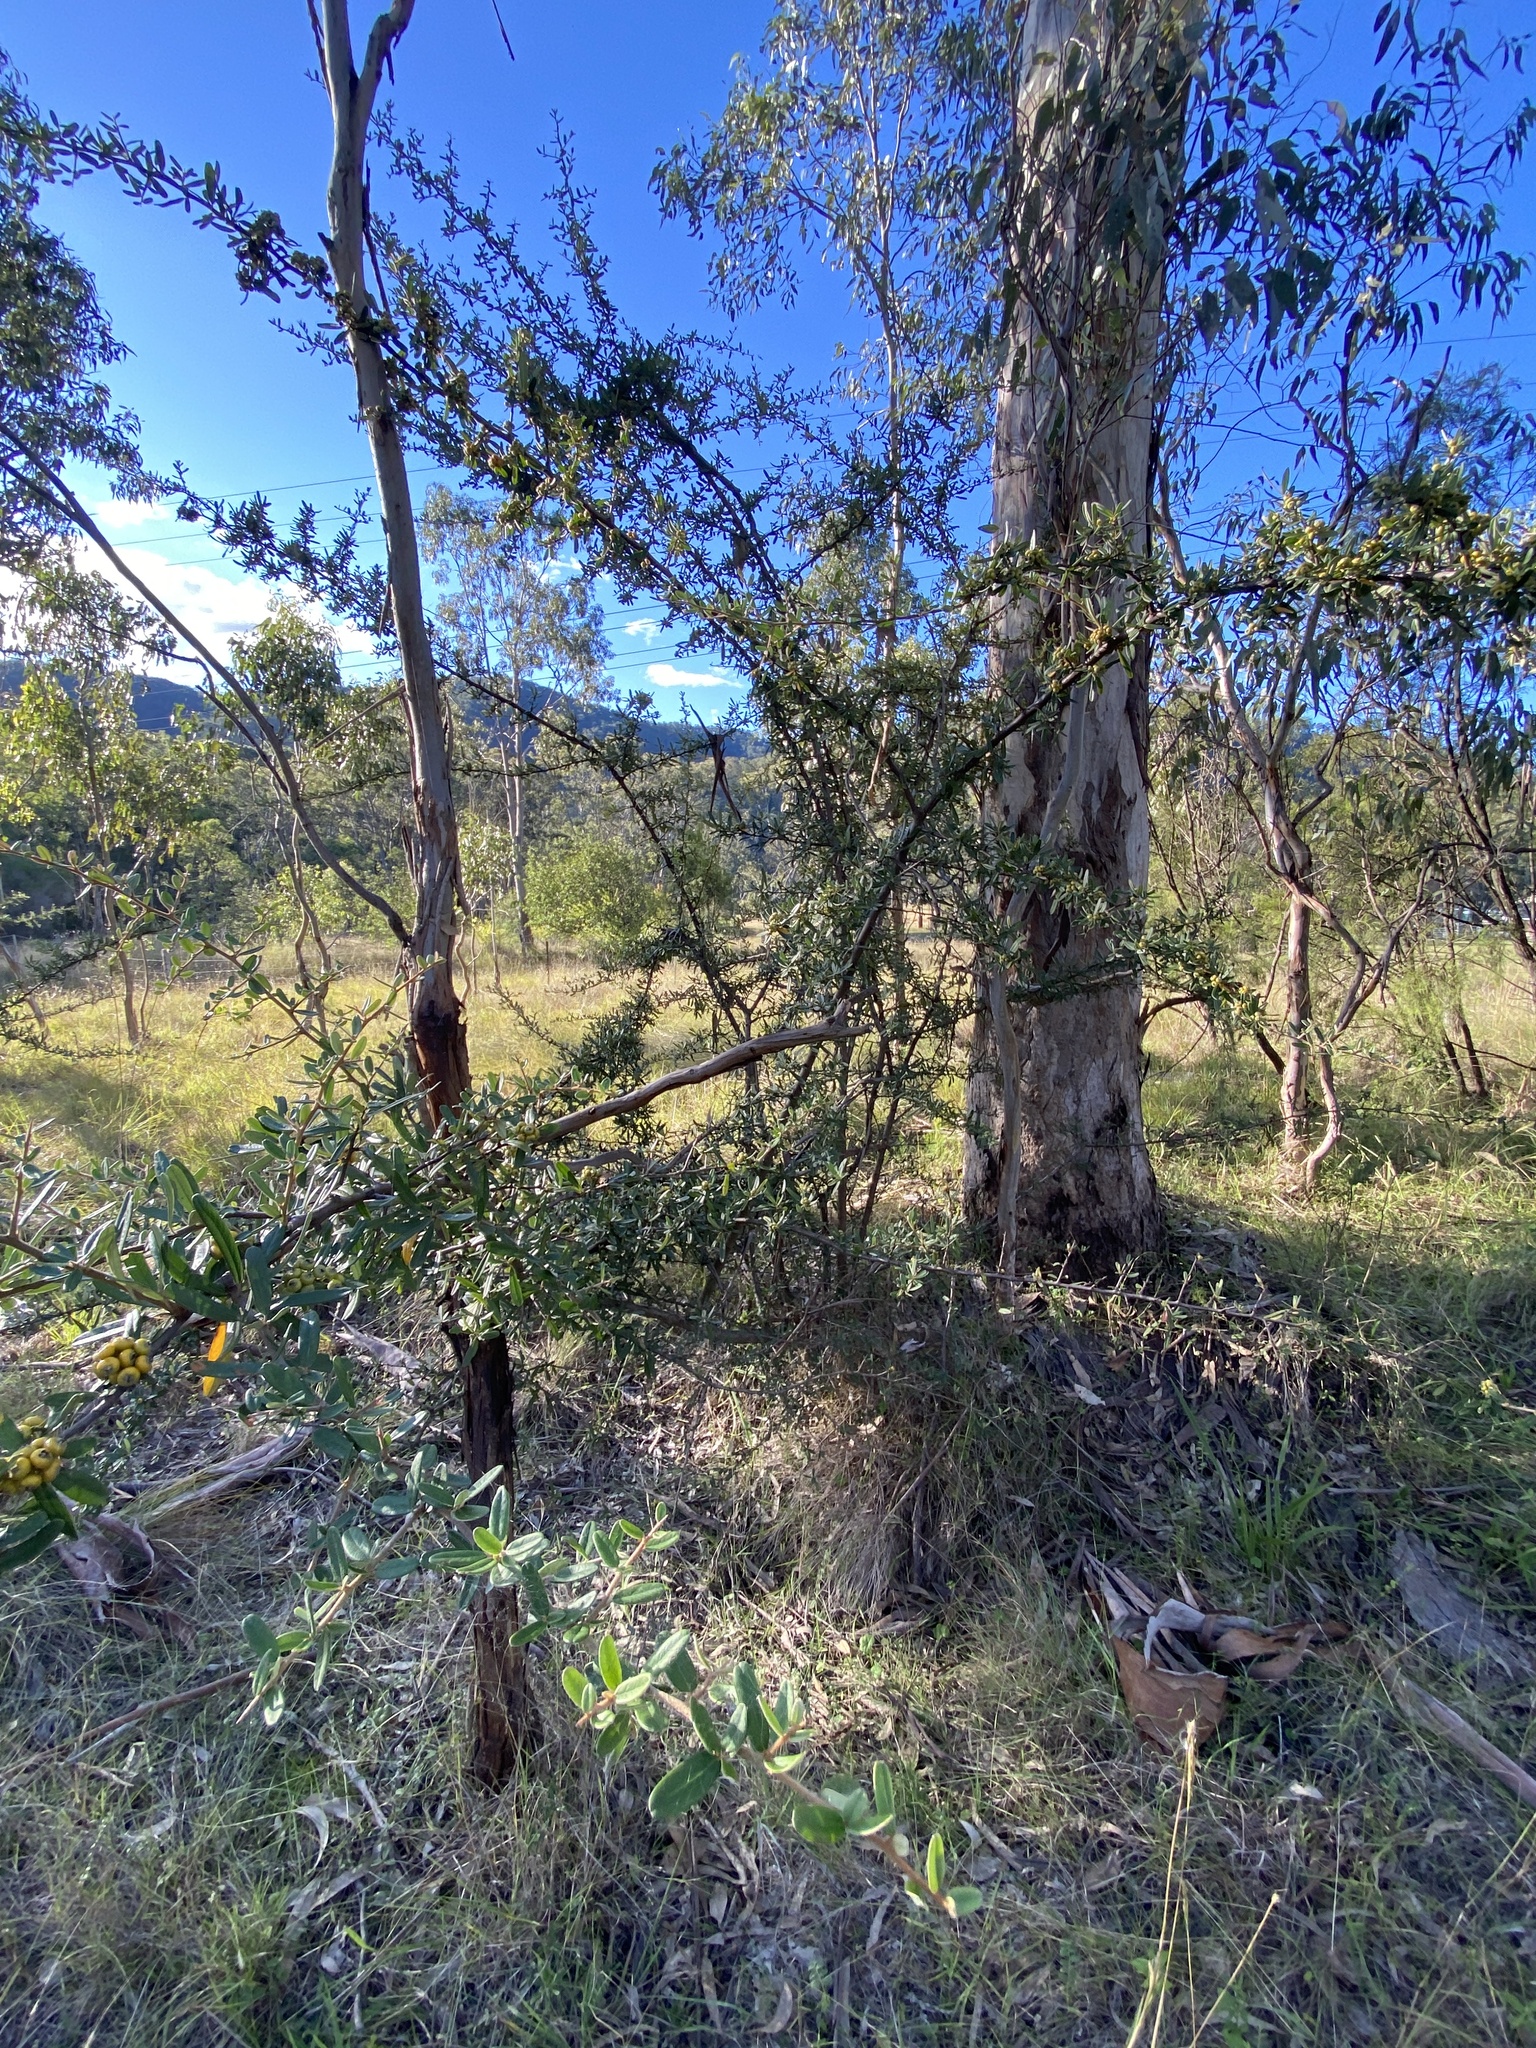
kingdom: Plantae
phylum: Tracheophyta
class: Magnoliopsida
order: Rosales
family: Rosaceae
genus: Pyracantha
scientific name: Pyracantha angustifolia
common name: Narrowleaf firethorn
